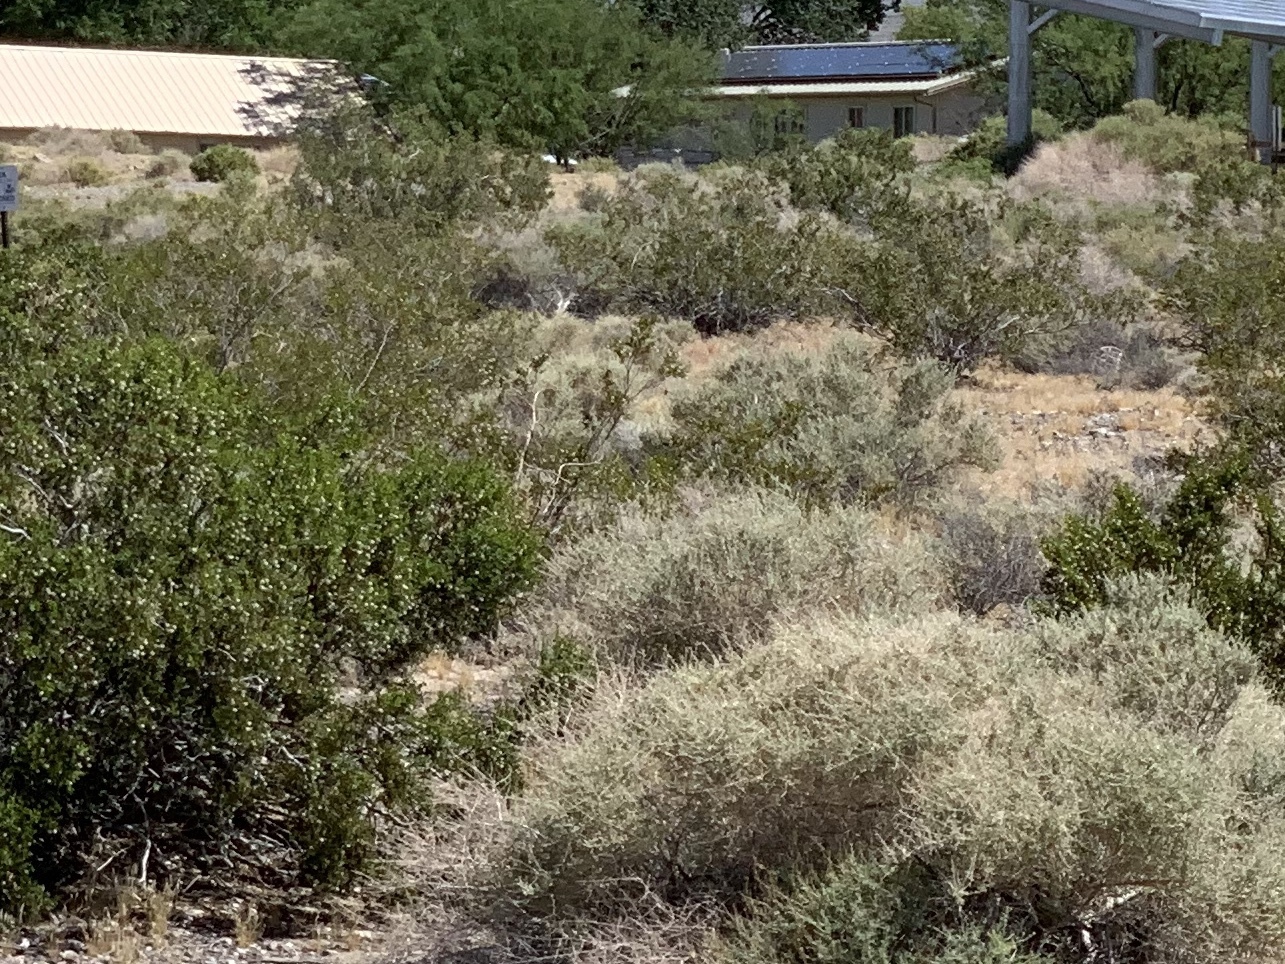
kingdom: Plantae
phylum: Tracheophyta
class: Magnoliopsida
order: Zygophyllales
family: Zygophyllaceae
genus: Larrea
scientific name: Larrea tridentata
